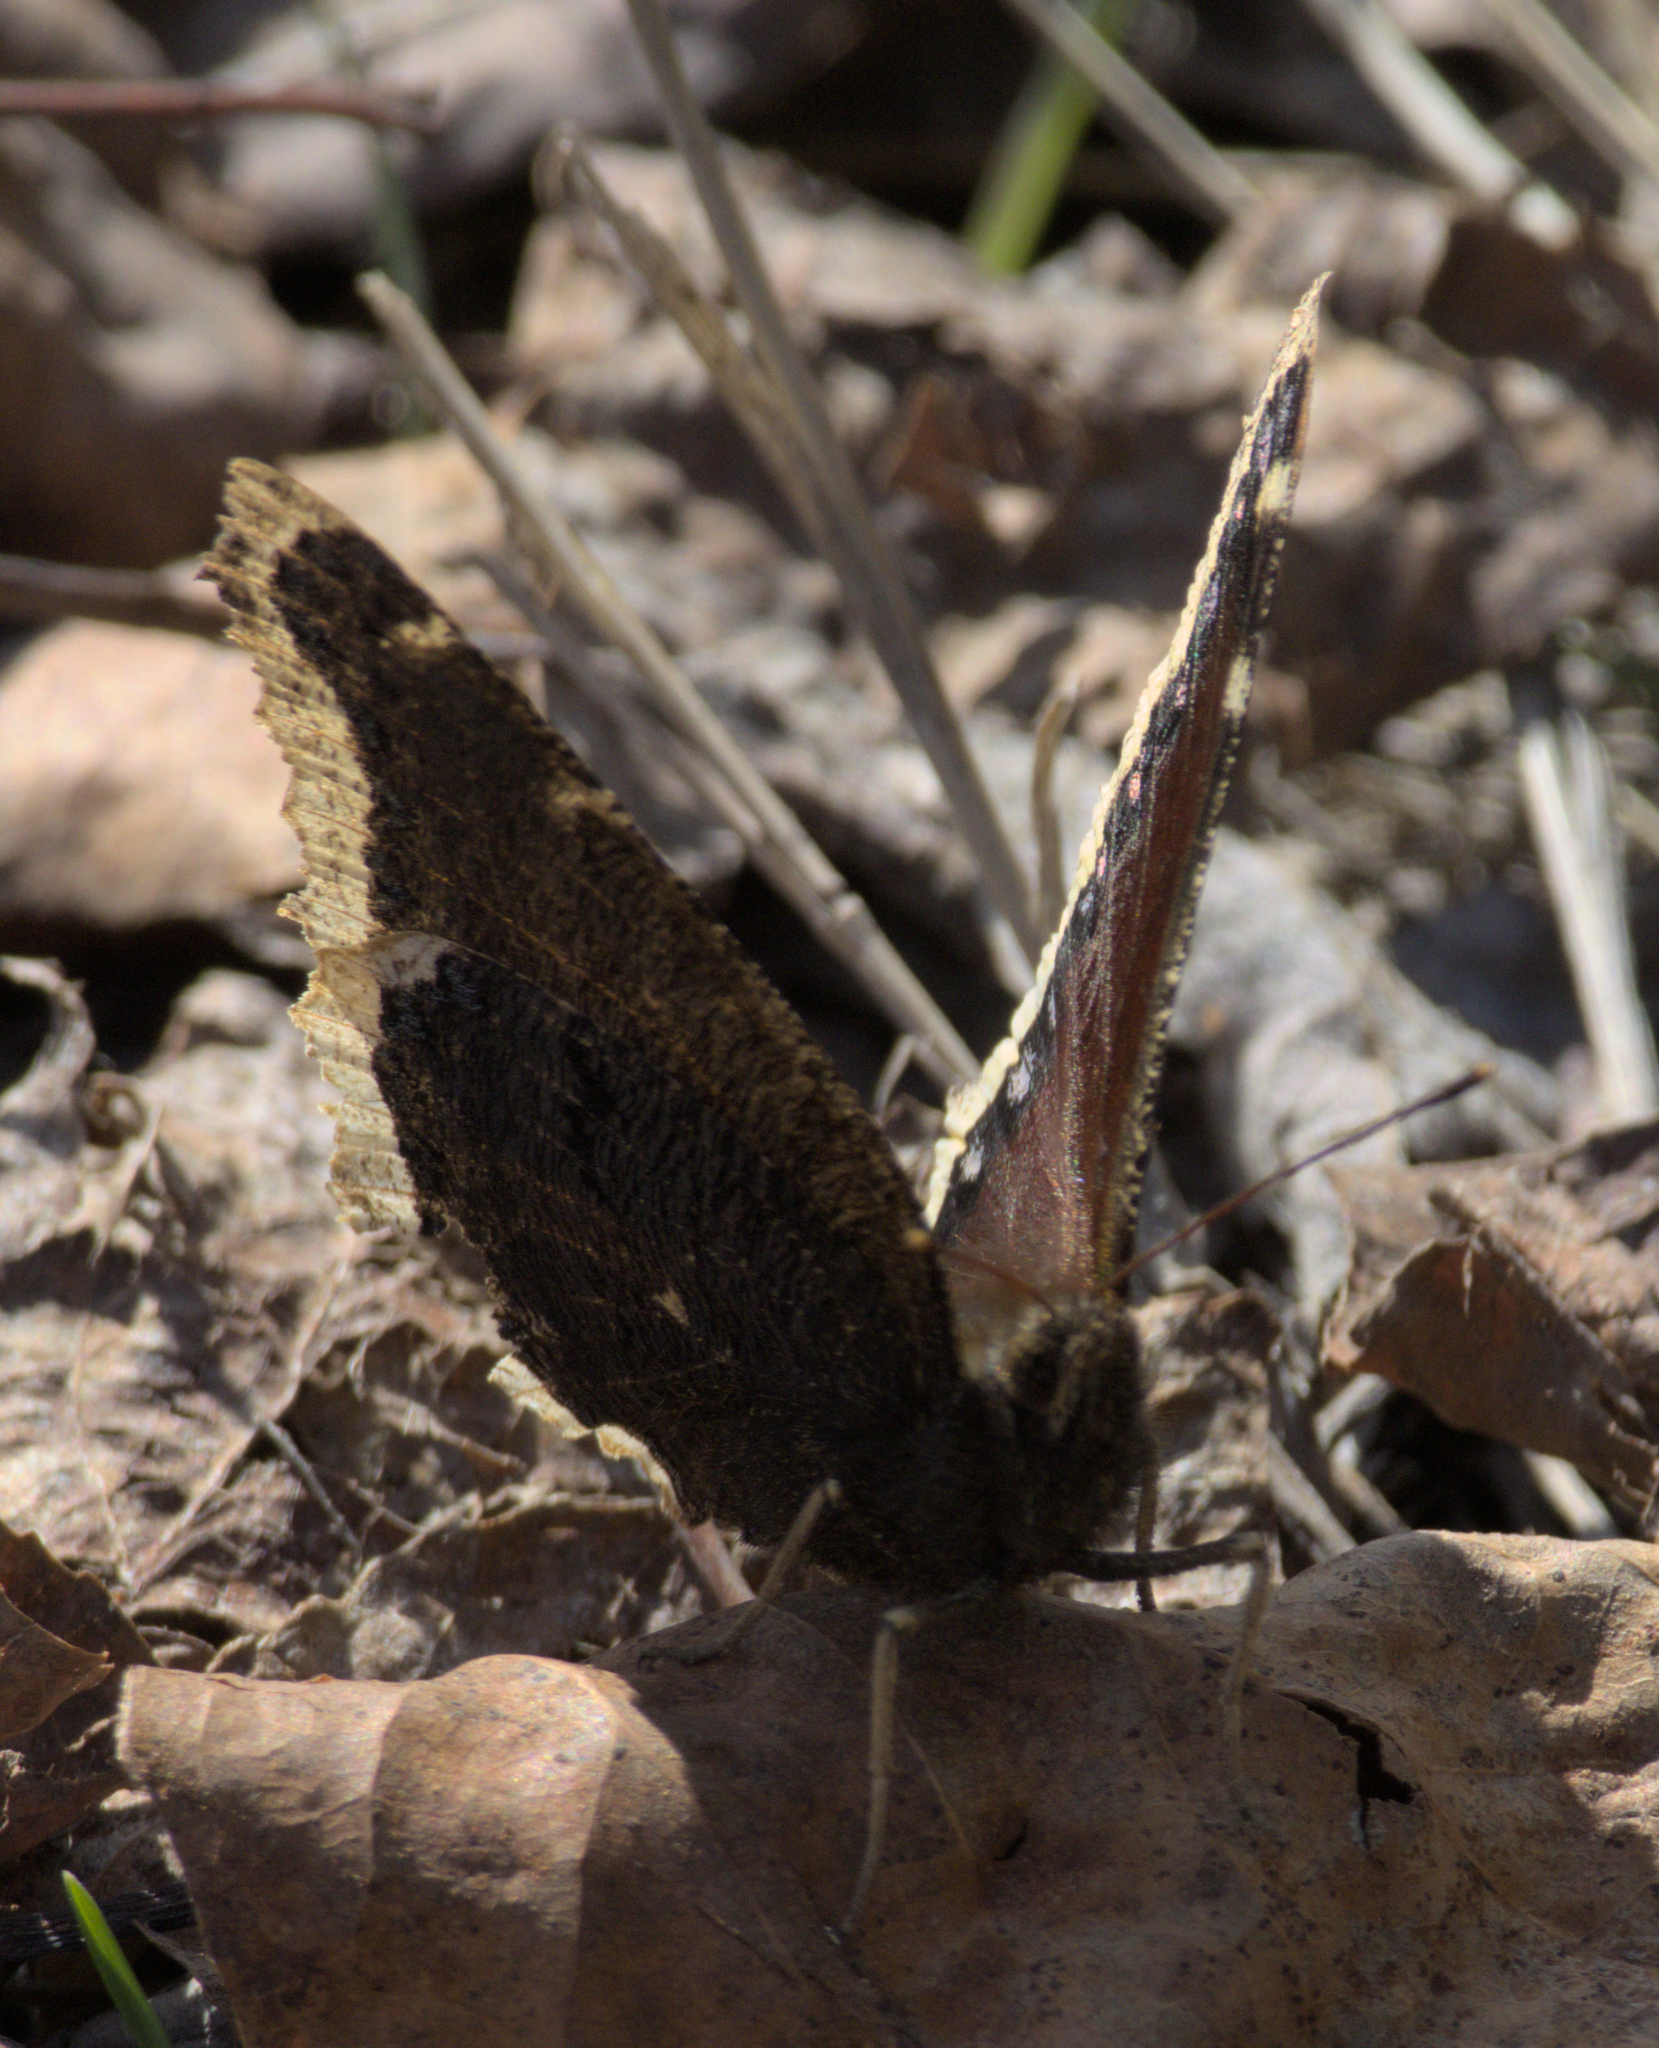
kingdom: Animalia
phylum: Arthropoda
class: Insecta
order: Lepidoptera
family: Nymphalidae
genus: Nymphalis
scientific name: Nymphalis antiopa
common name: Camberwell beauty
